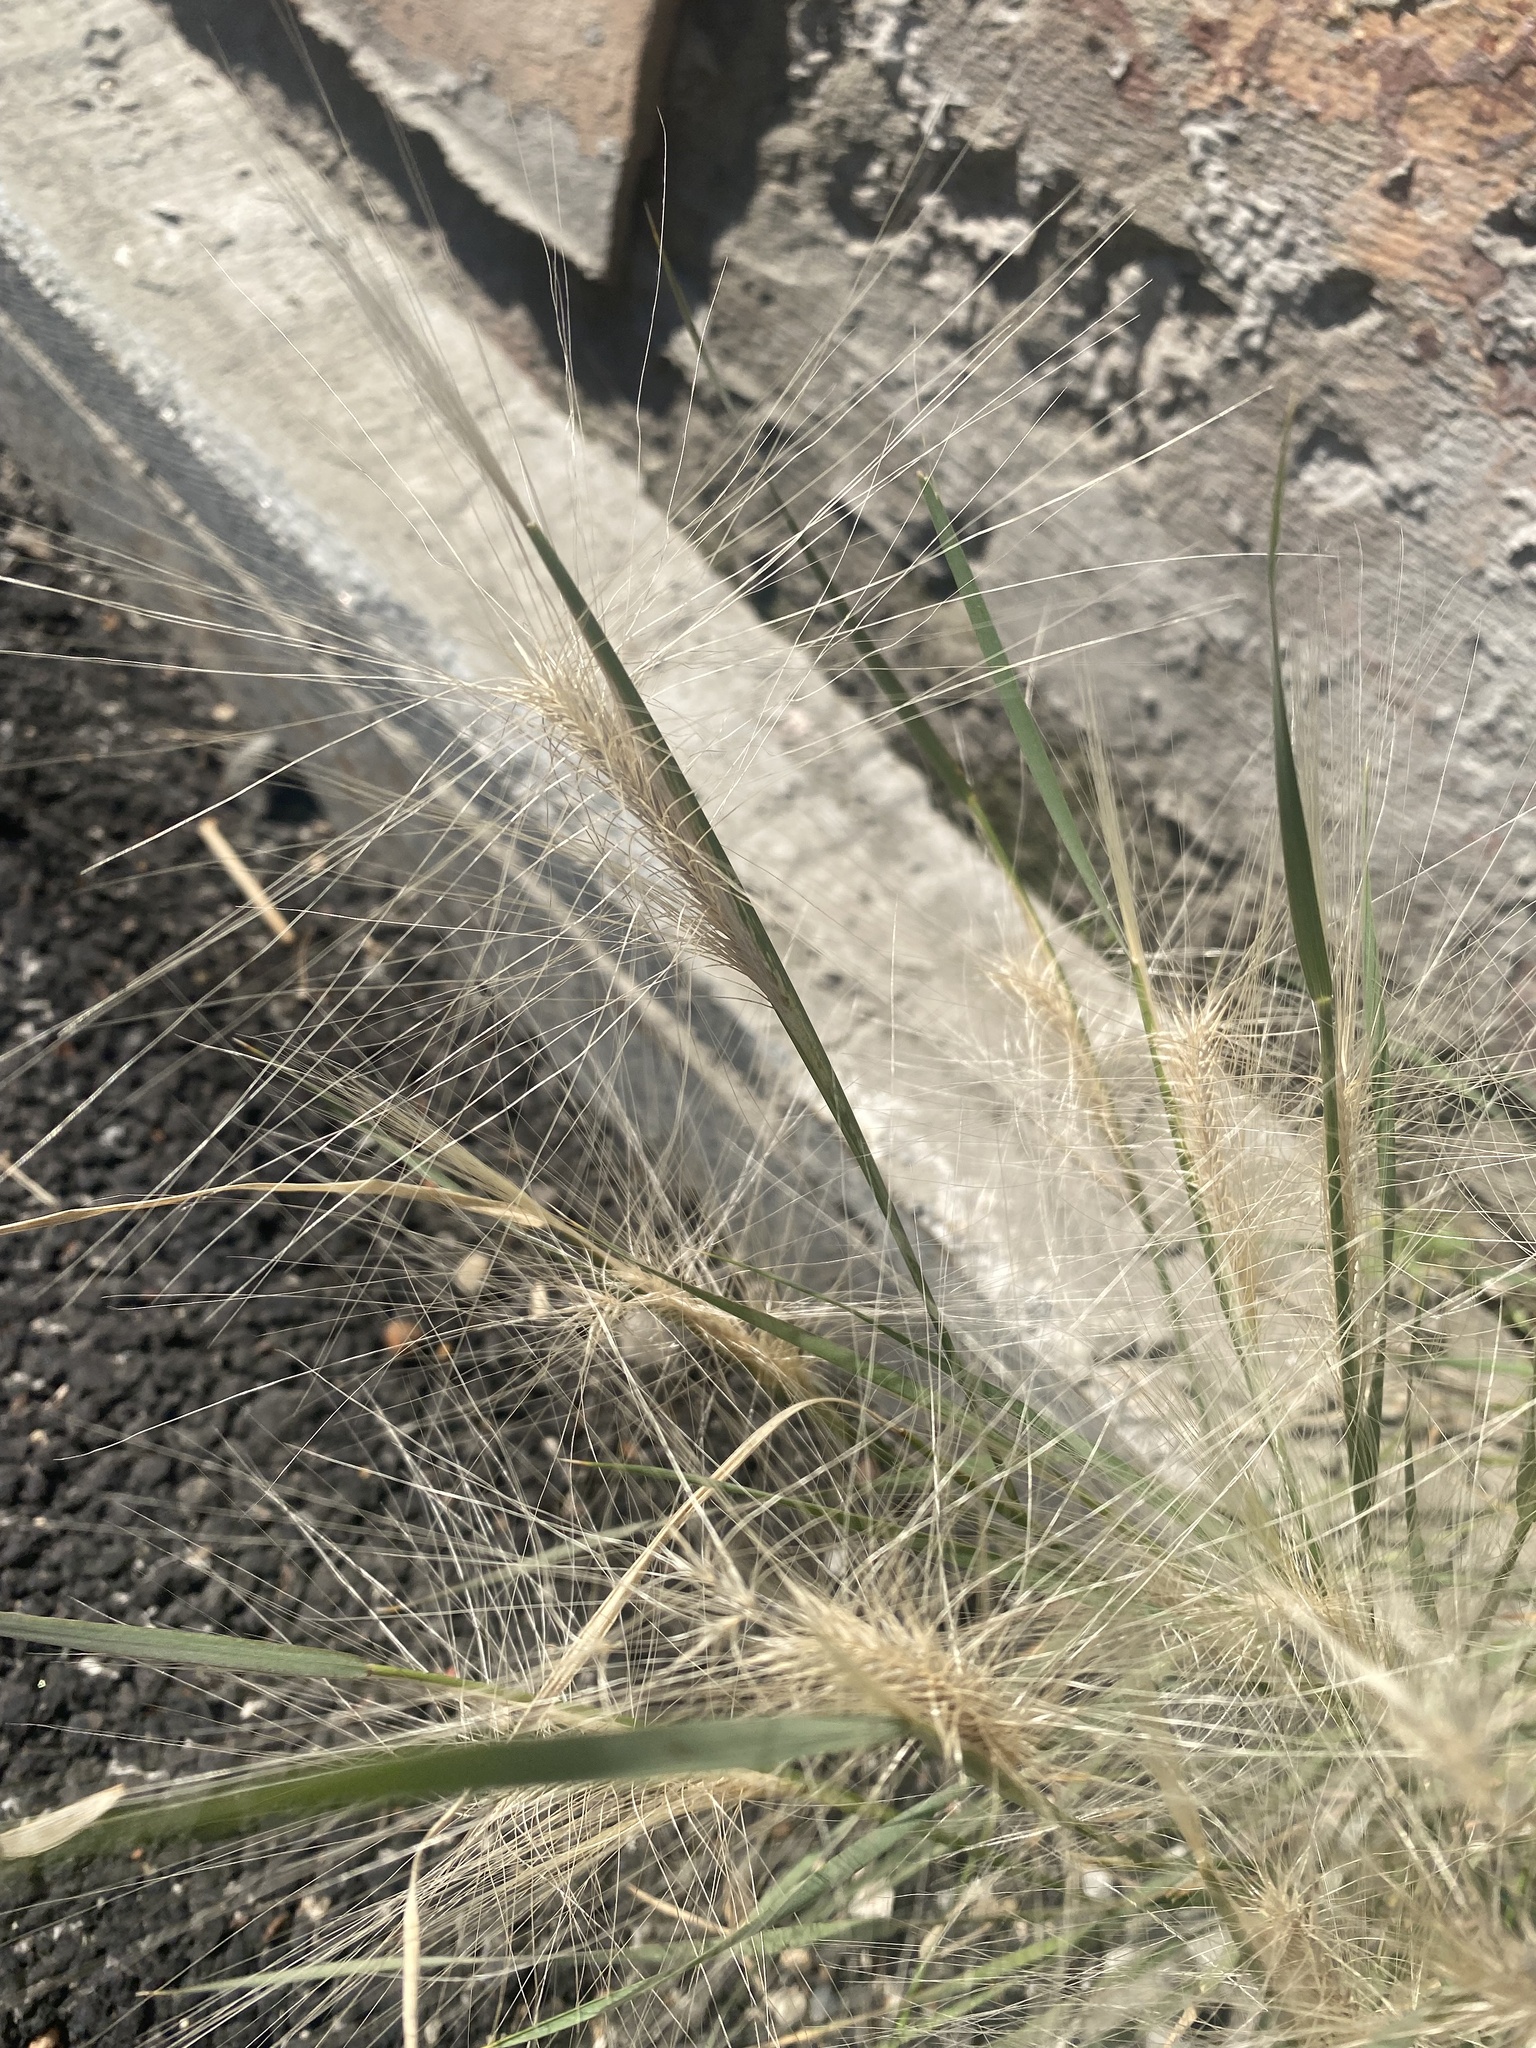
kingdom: Plantae
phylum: Tracheophyta
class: Liliopsida
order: Poales
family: Poaceae
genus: Hordeum
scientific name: Hordeum jubatum
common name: Foxtail barley
